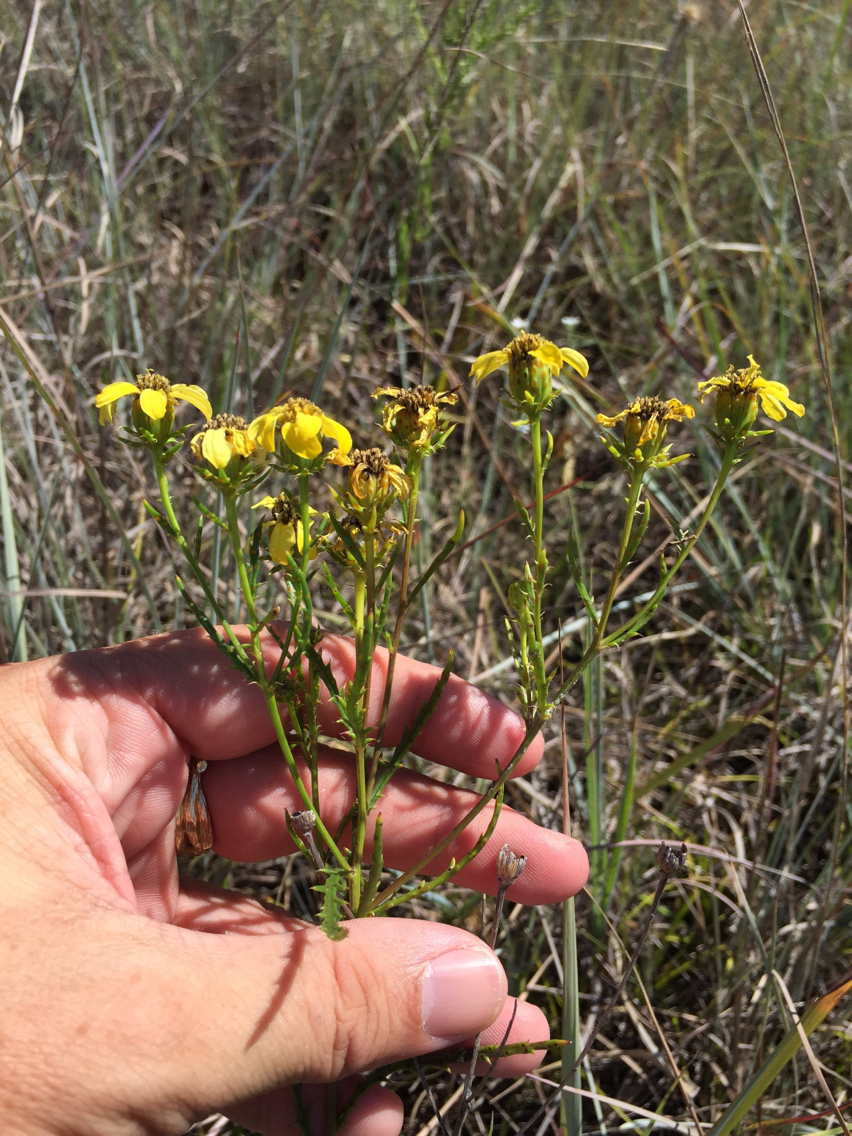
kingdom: Plantae
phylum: Tracheophyta
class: Magnoliopsida
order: Asterales
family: Asteraceae
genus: Dysodiopsis
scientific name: Dysodiopsis tagetoides
